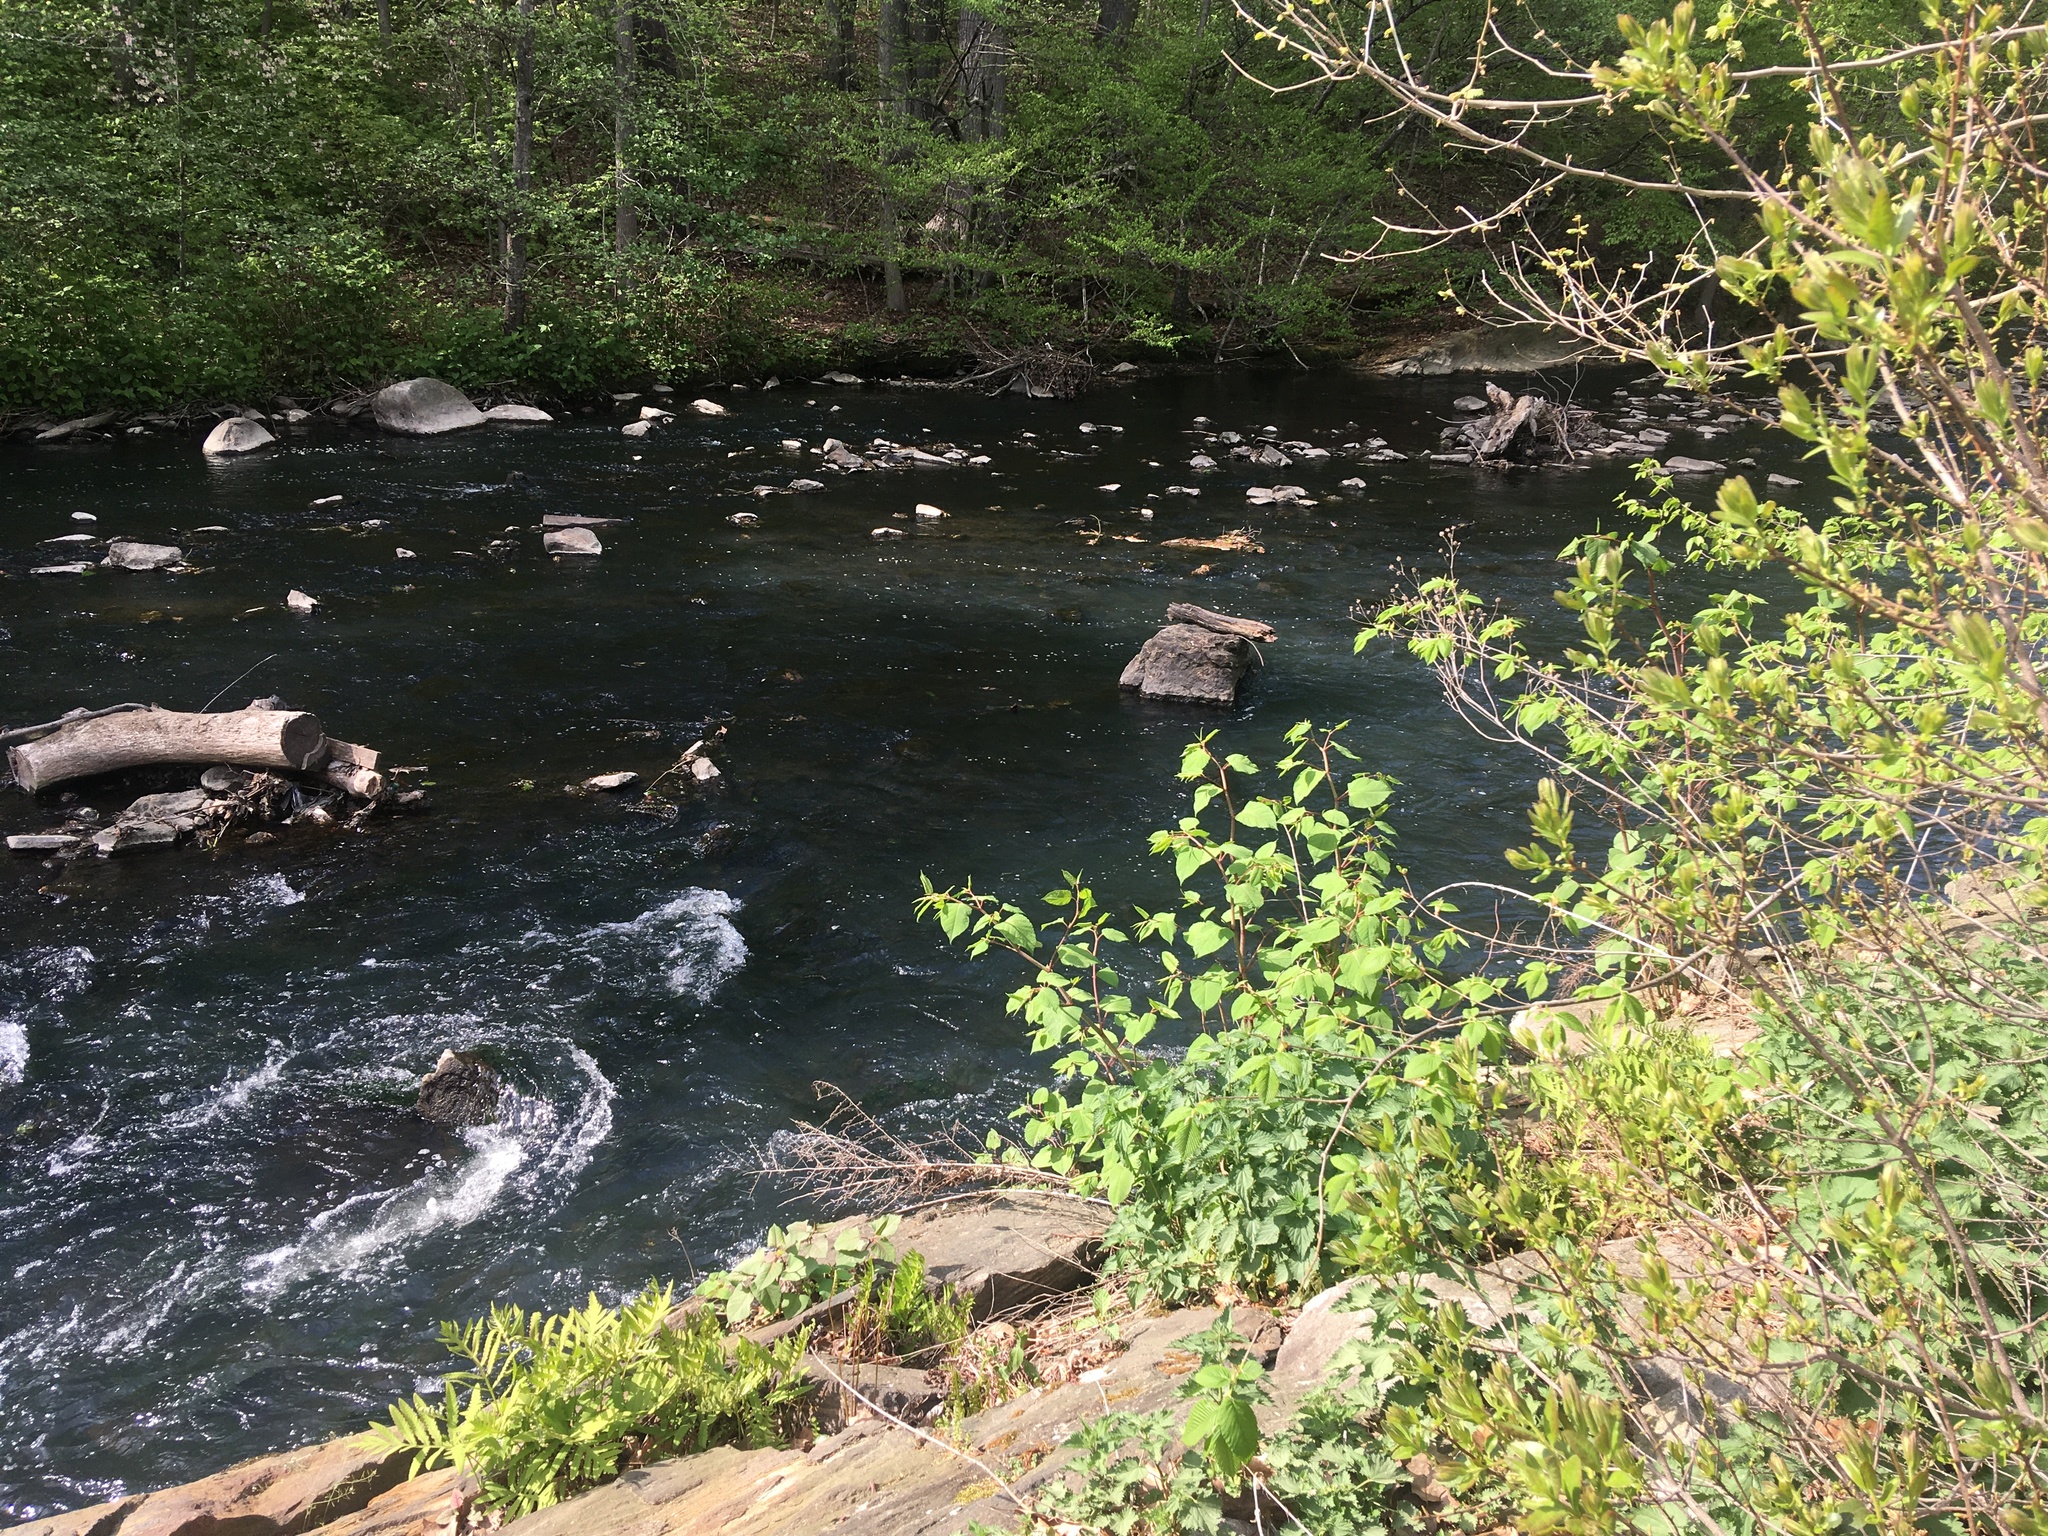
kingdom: Plantae
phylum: Tracheophyta
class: Magnoliopsida
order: Caryophyllales
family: Polygonaceae
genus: Reynoutria
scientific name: Reynoutria japonica
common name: Japanese knotweed
